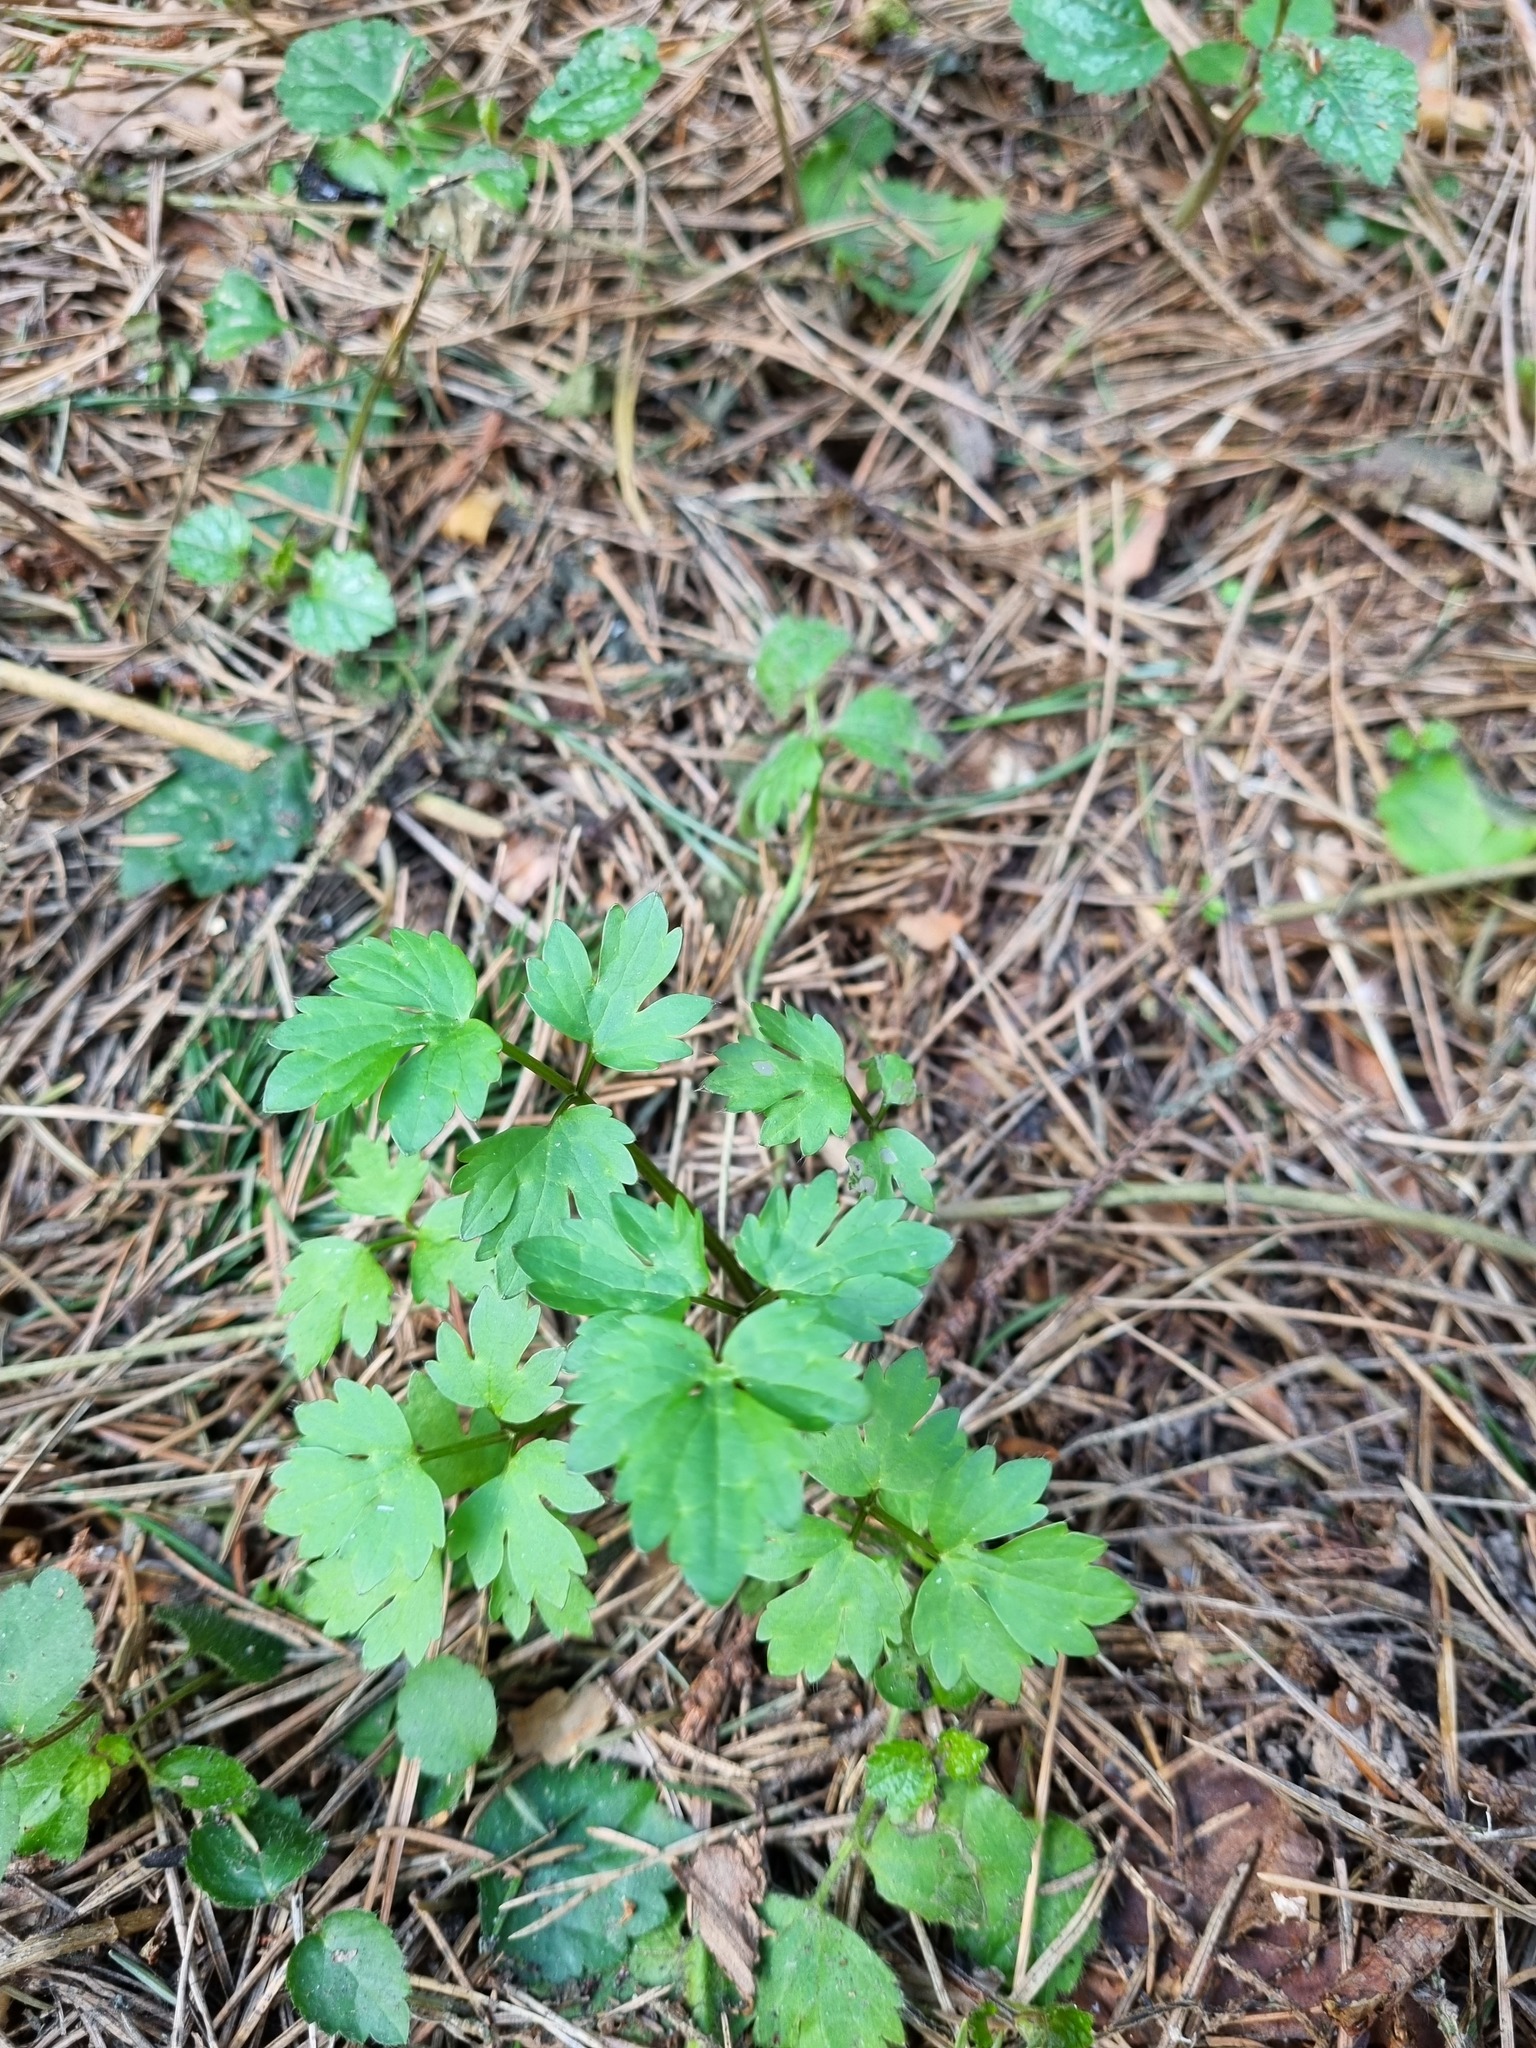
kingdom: Plantae
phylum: Tracheophyta
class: Magnoliopsida
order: Ranunculales
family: Ranunculaceae
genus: Ranunculus
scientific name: Ranunculus repens
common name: Creeping buttercup
